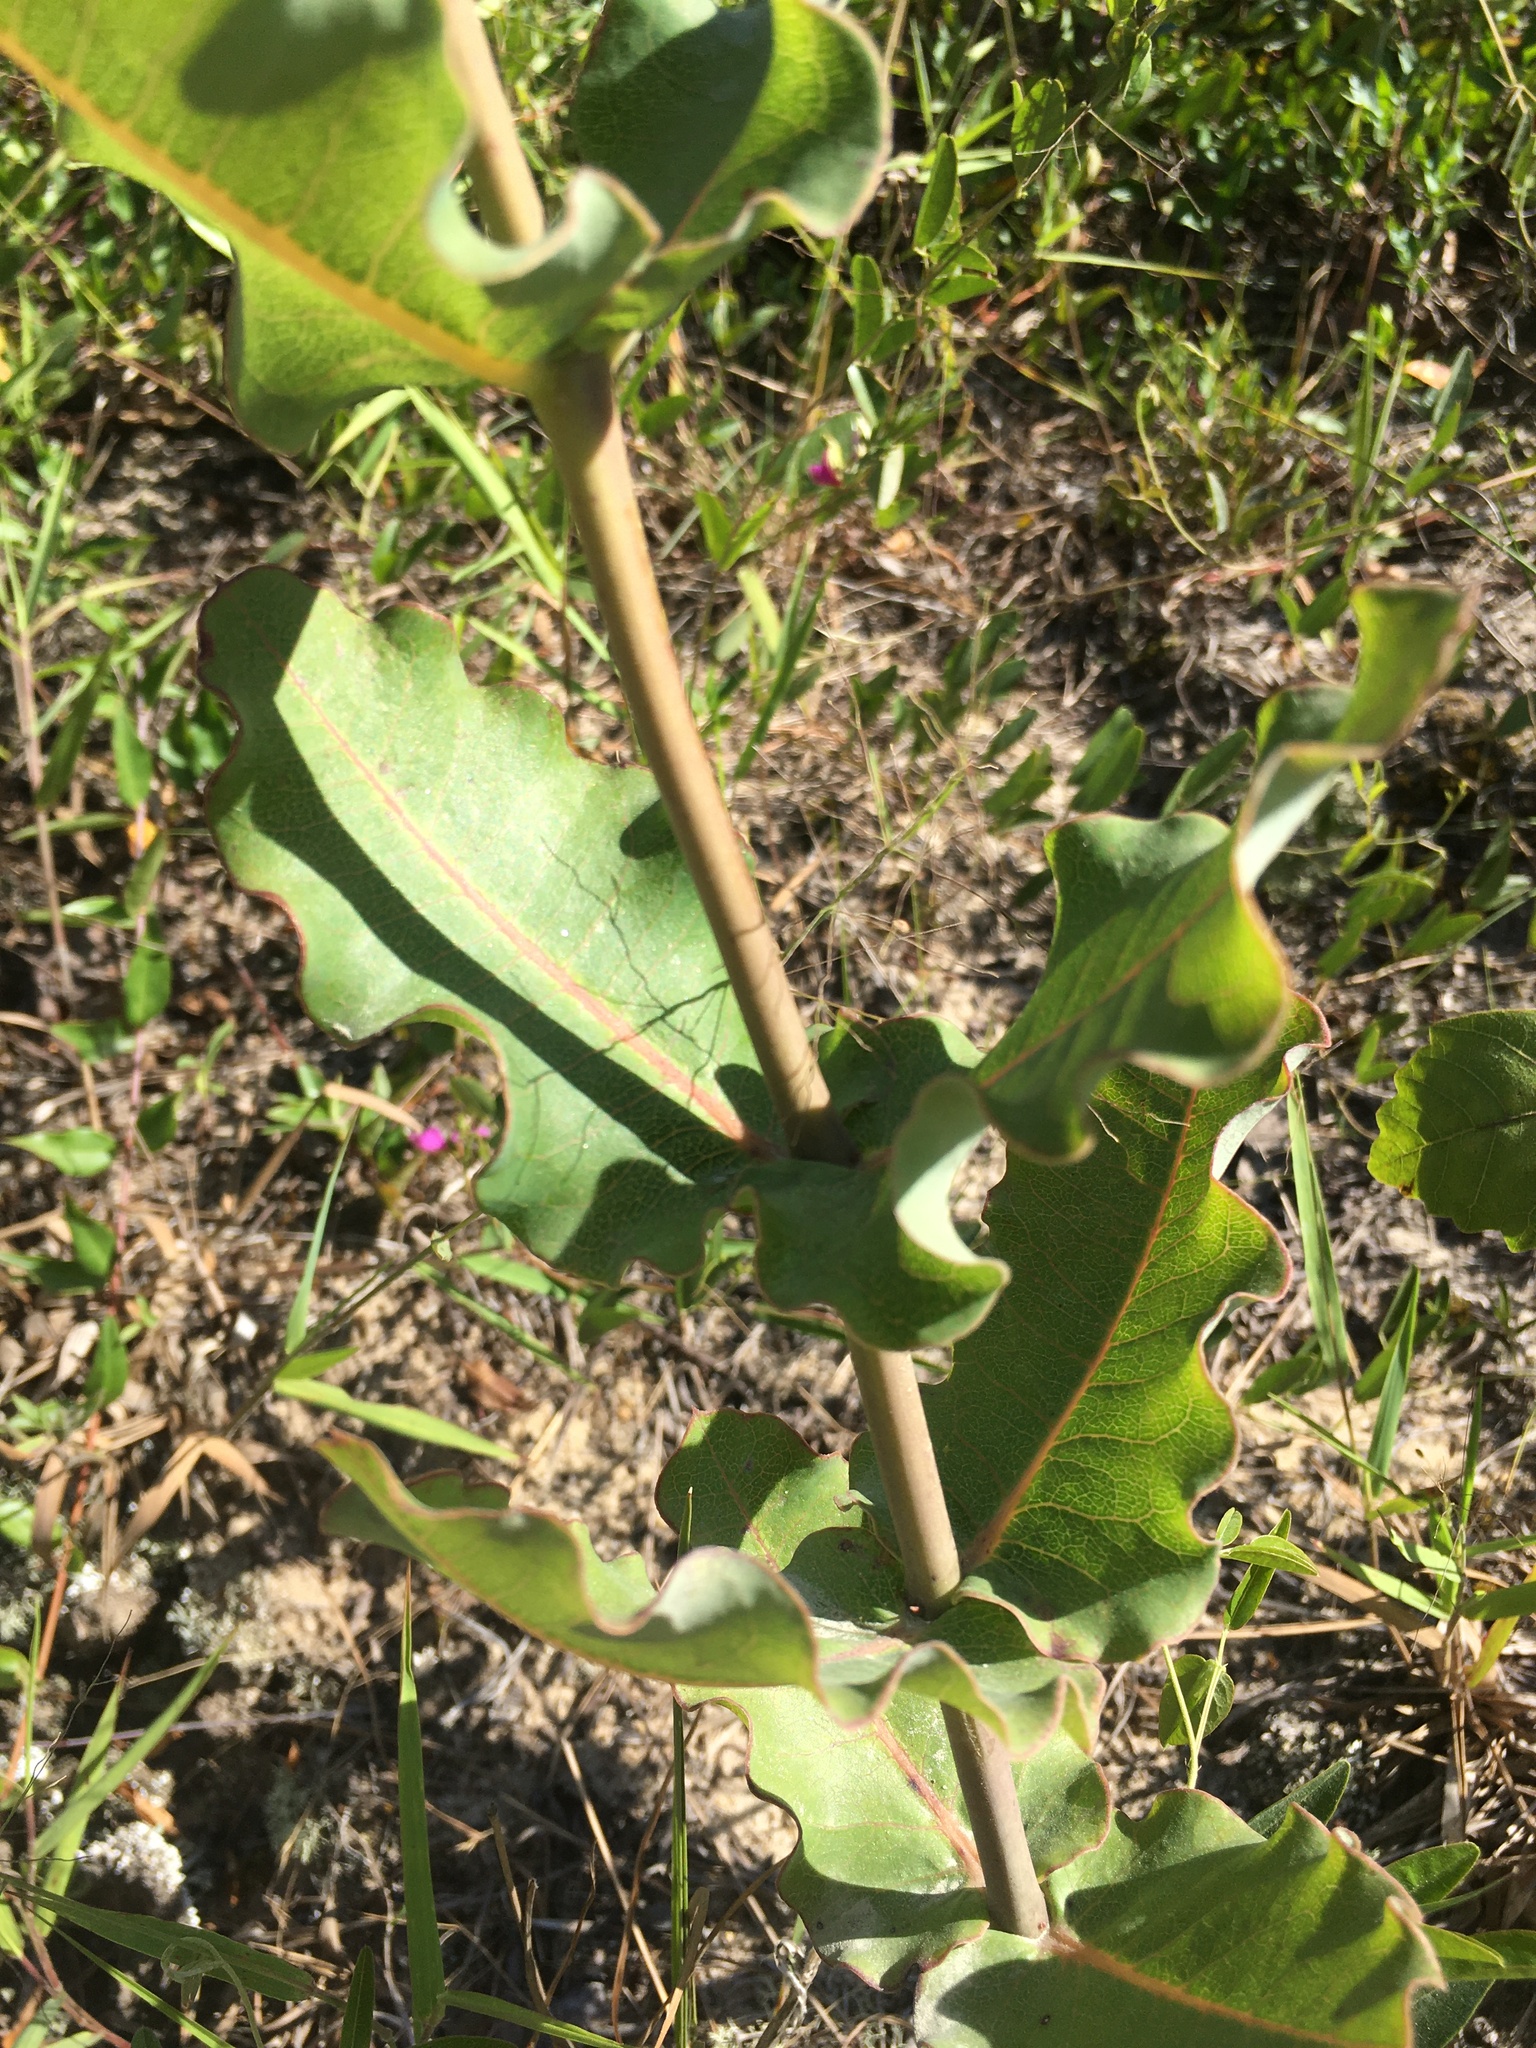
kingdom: Plantae
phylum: Tracheophyta
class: Magnoliopsida
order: Gentianales
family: Apocynaceae
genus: Asclepias
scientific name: Asclepias amplexicaulis
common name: Blunt-leaf milkweed
